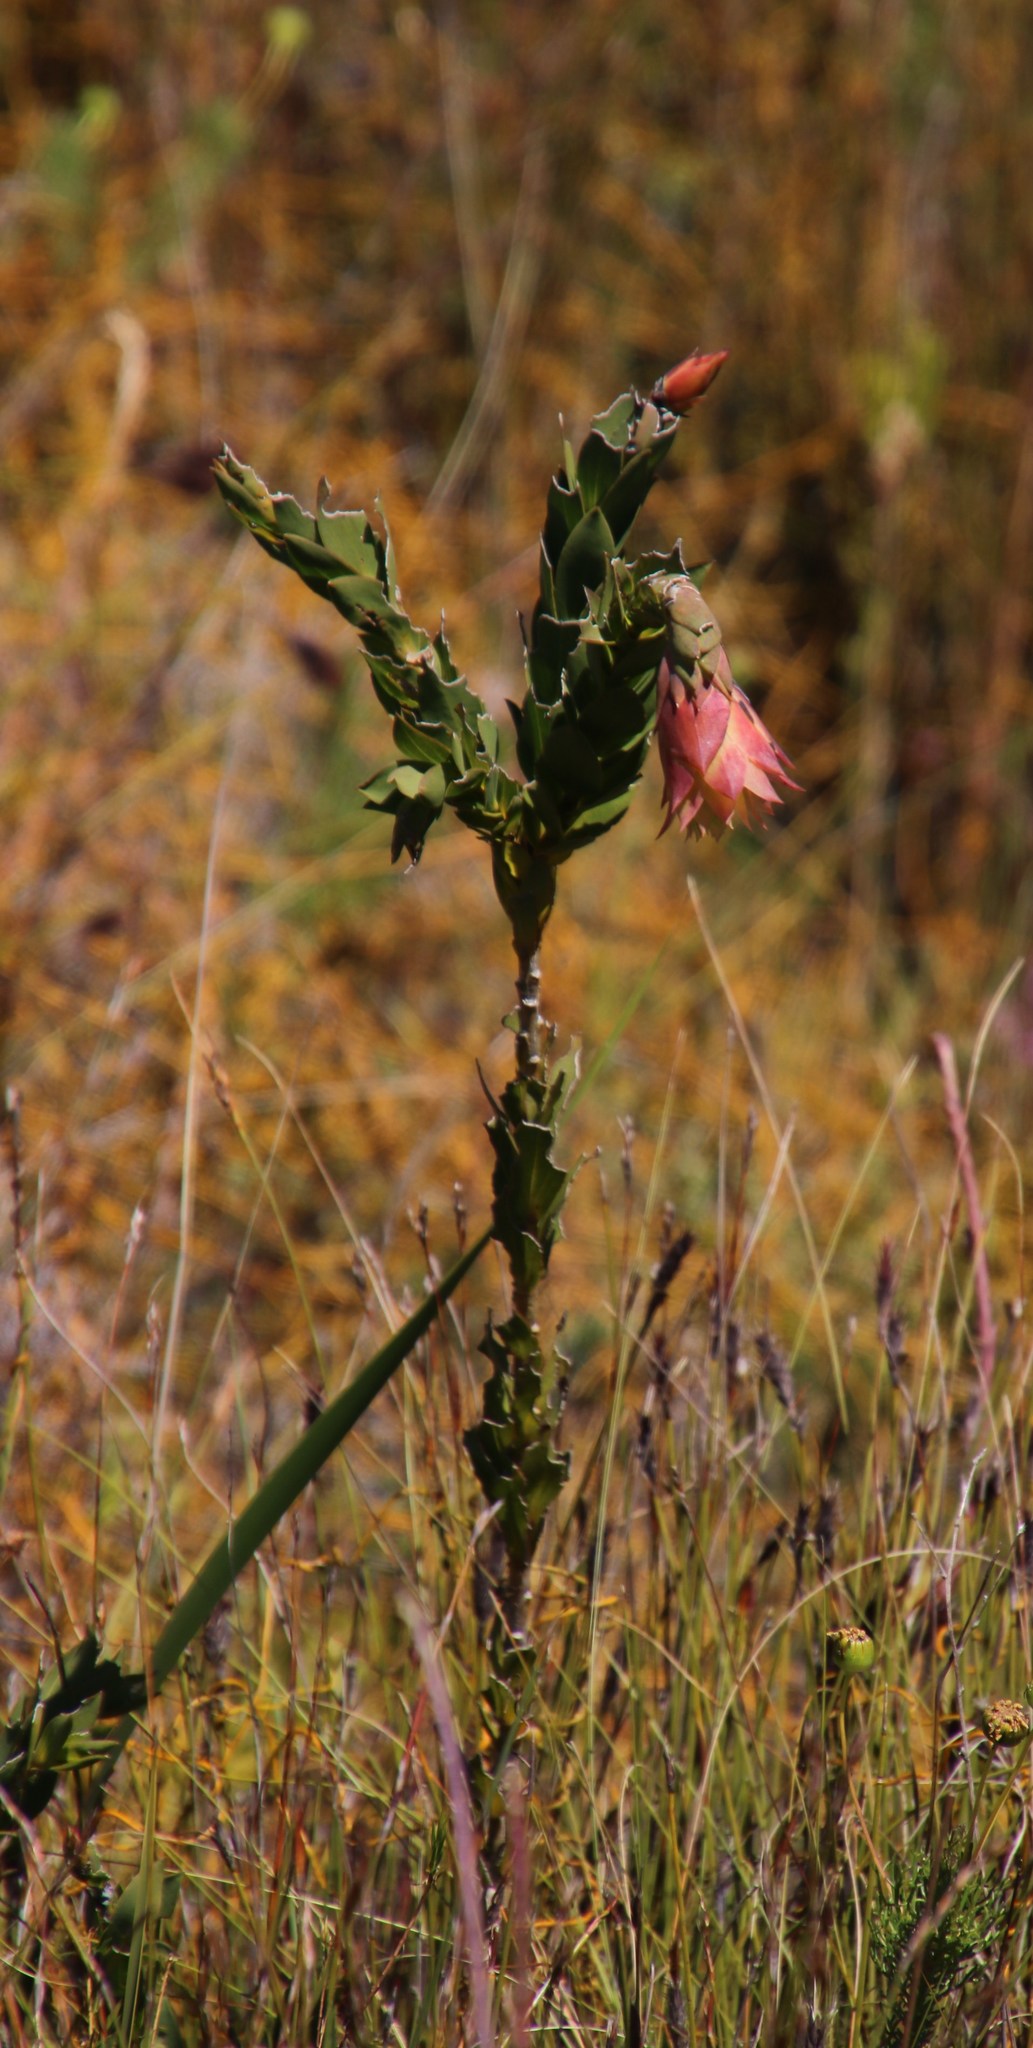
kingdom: Plantae
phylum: Tracheophyta
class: Magnoliopsida
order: Fabales
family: Fabaceae
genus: Liparia
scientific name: Liparia splendens
